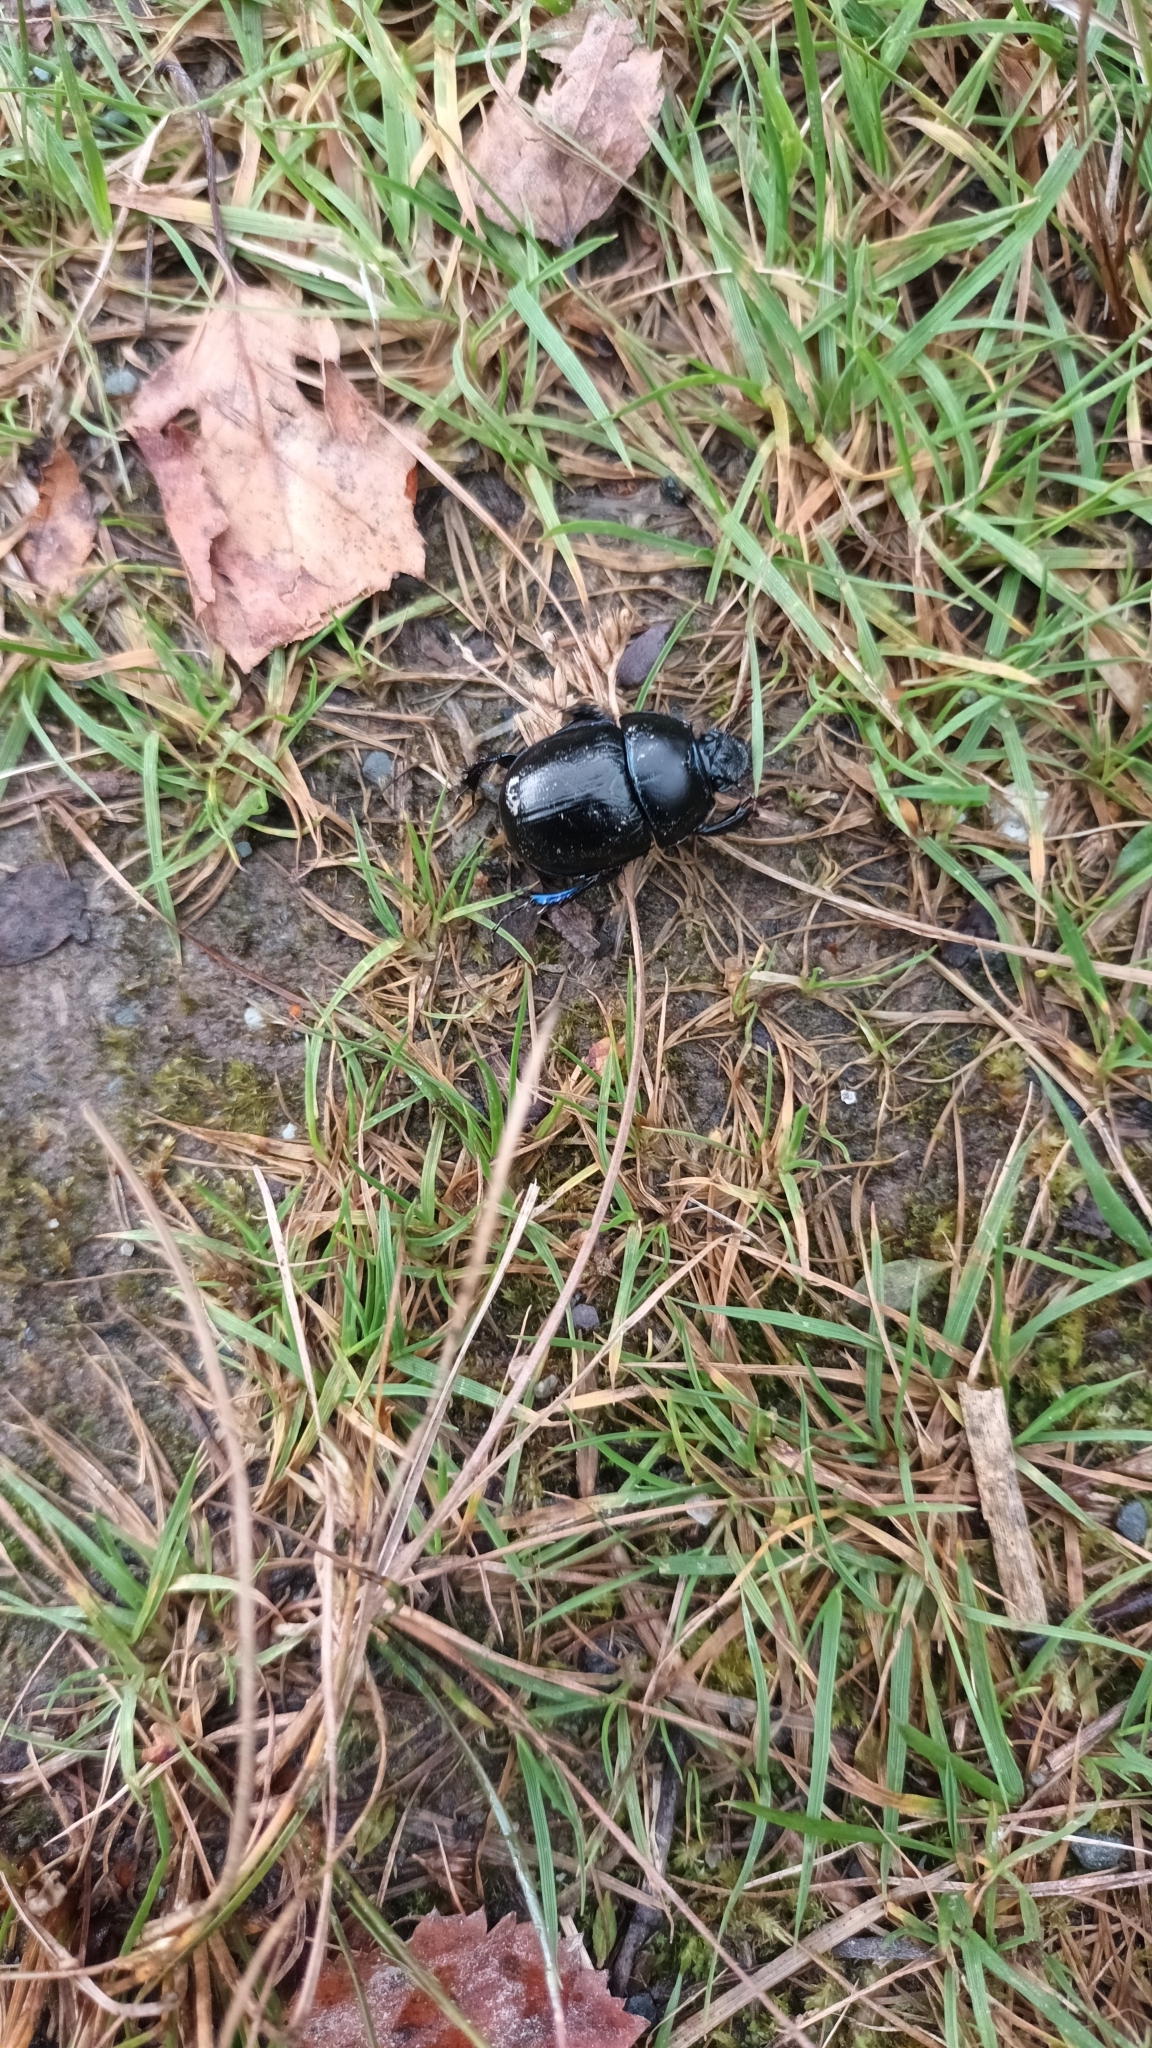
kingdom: Animalia
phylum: Arthropoda
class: Insecta
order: Coleoptera
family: Geotrupidae
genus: Anoplotrupes
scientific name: Anoplotrupes stercorosus
